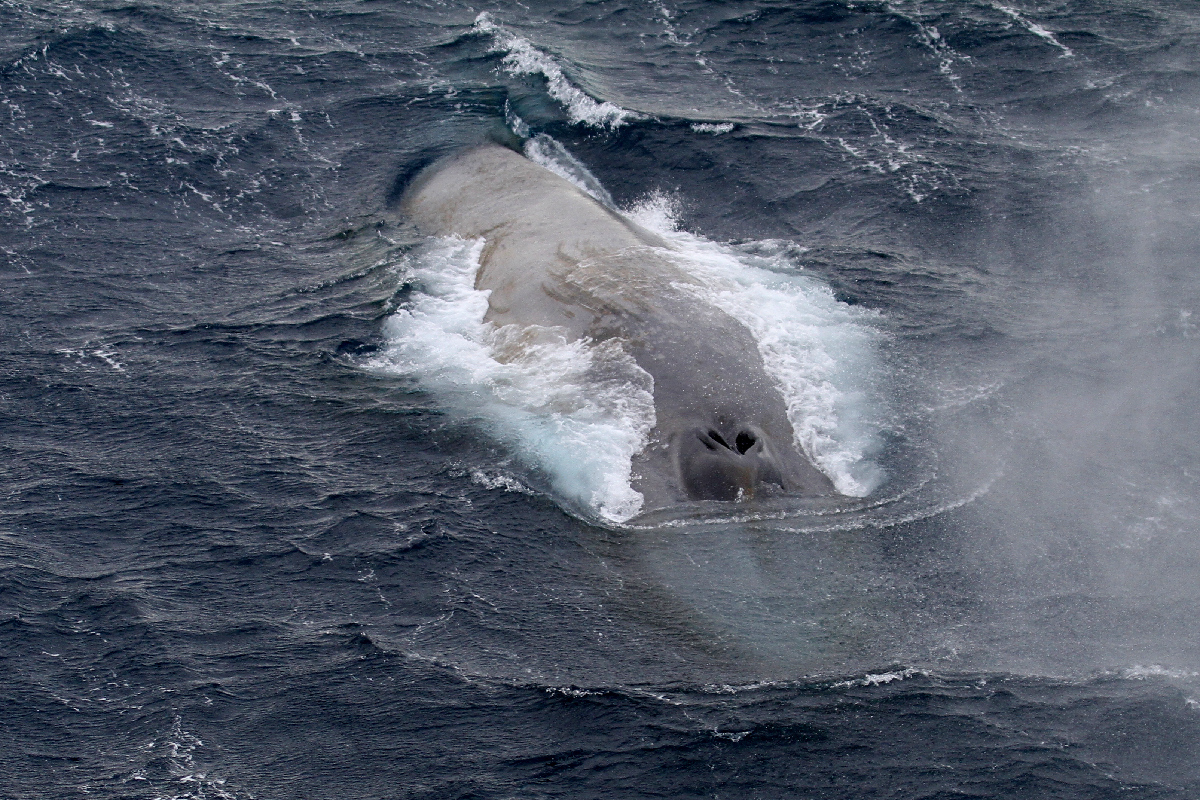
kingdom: Animalia
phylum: Chordata
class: Mammalia
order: Cetacea
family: Balaenopteridae
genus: Balaenoptera
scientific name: Balaenoptera musculus
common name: Blue whale
